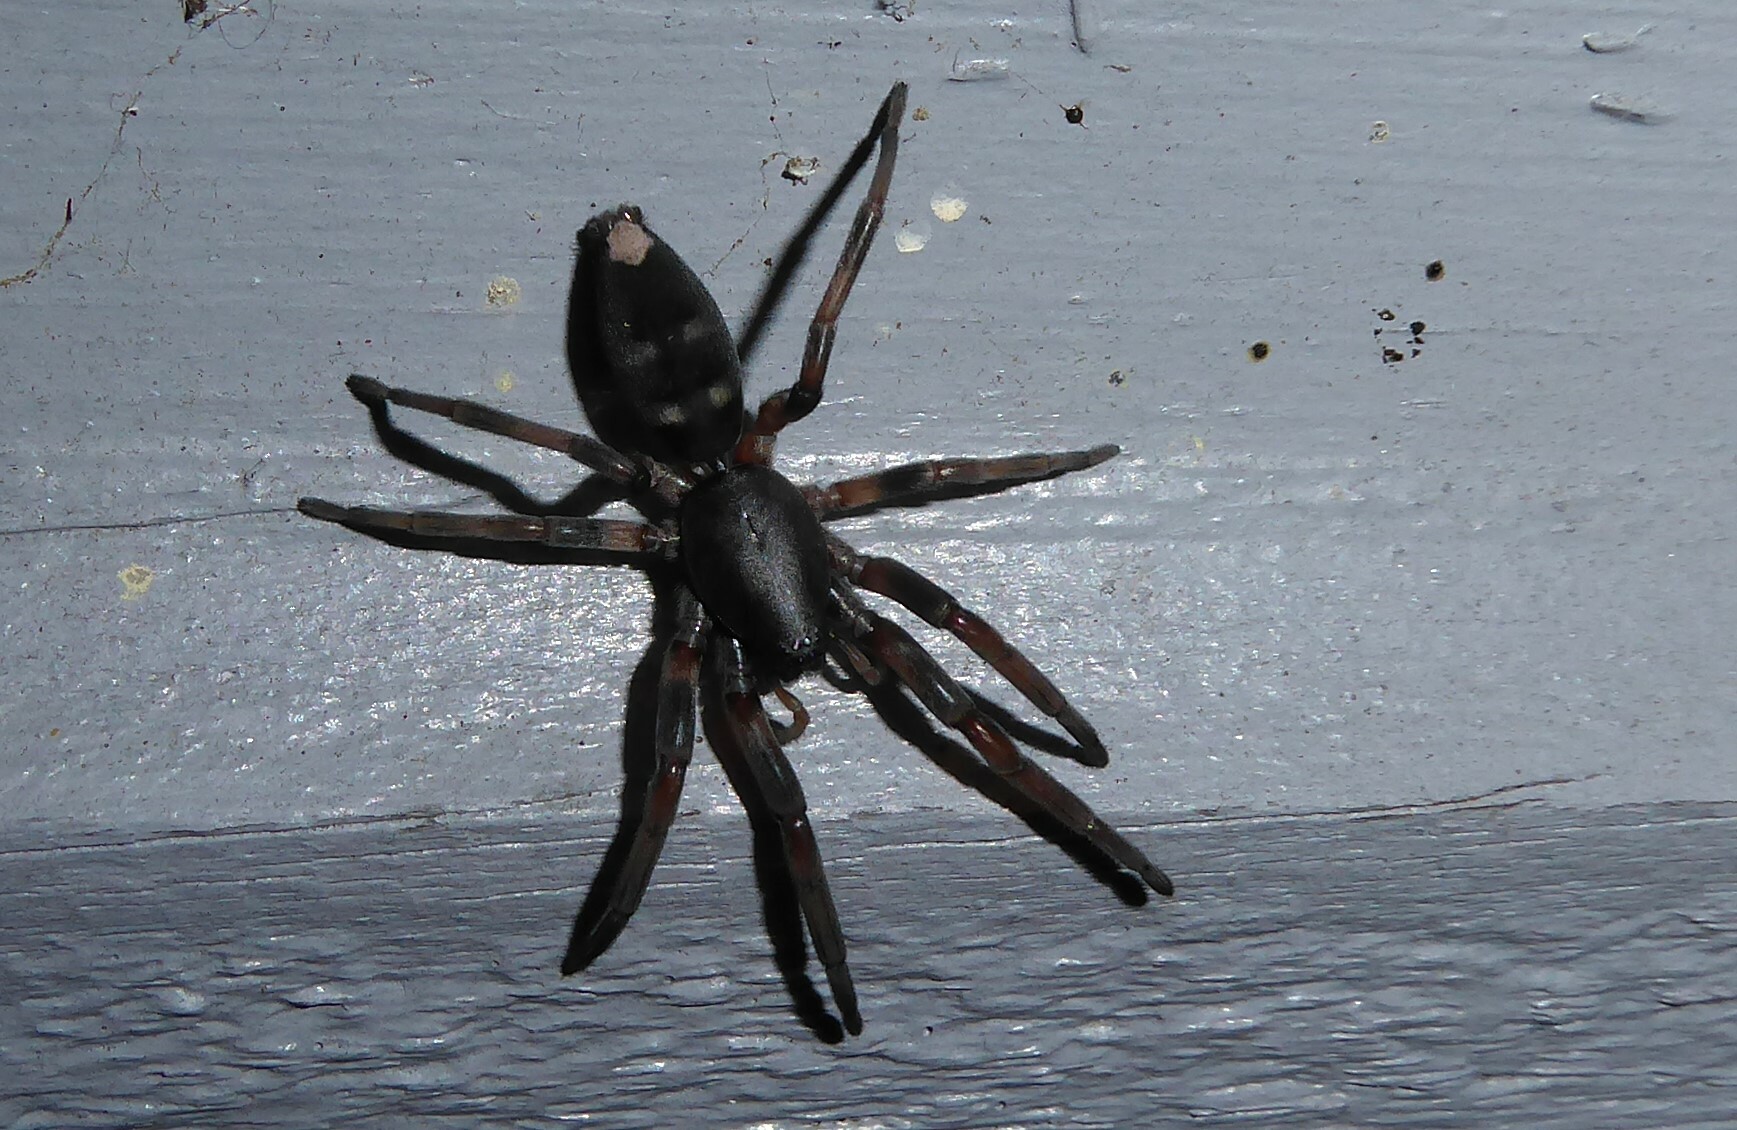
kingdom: Animalia
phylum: Arthropoda
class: Arachnida
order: Araneae
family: Lamponidae
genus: Lampona
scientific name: Lampona cylindrata
